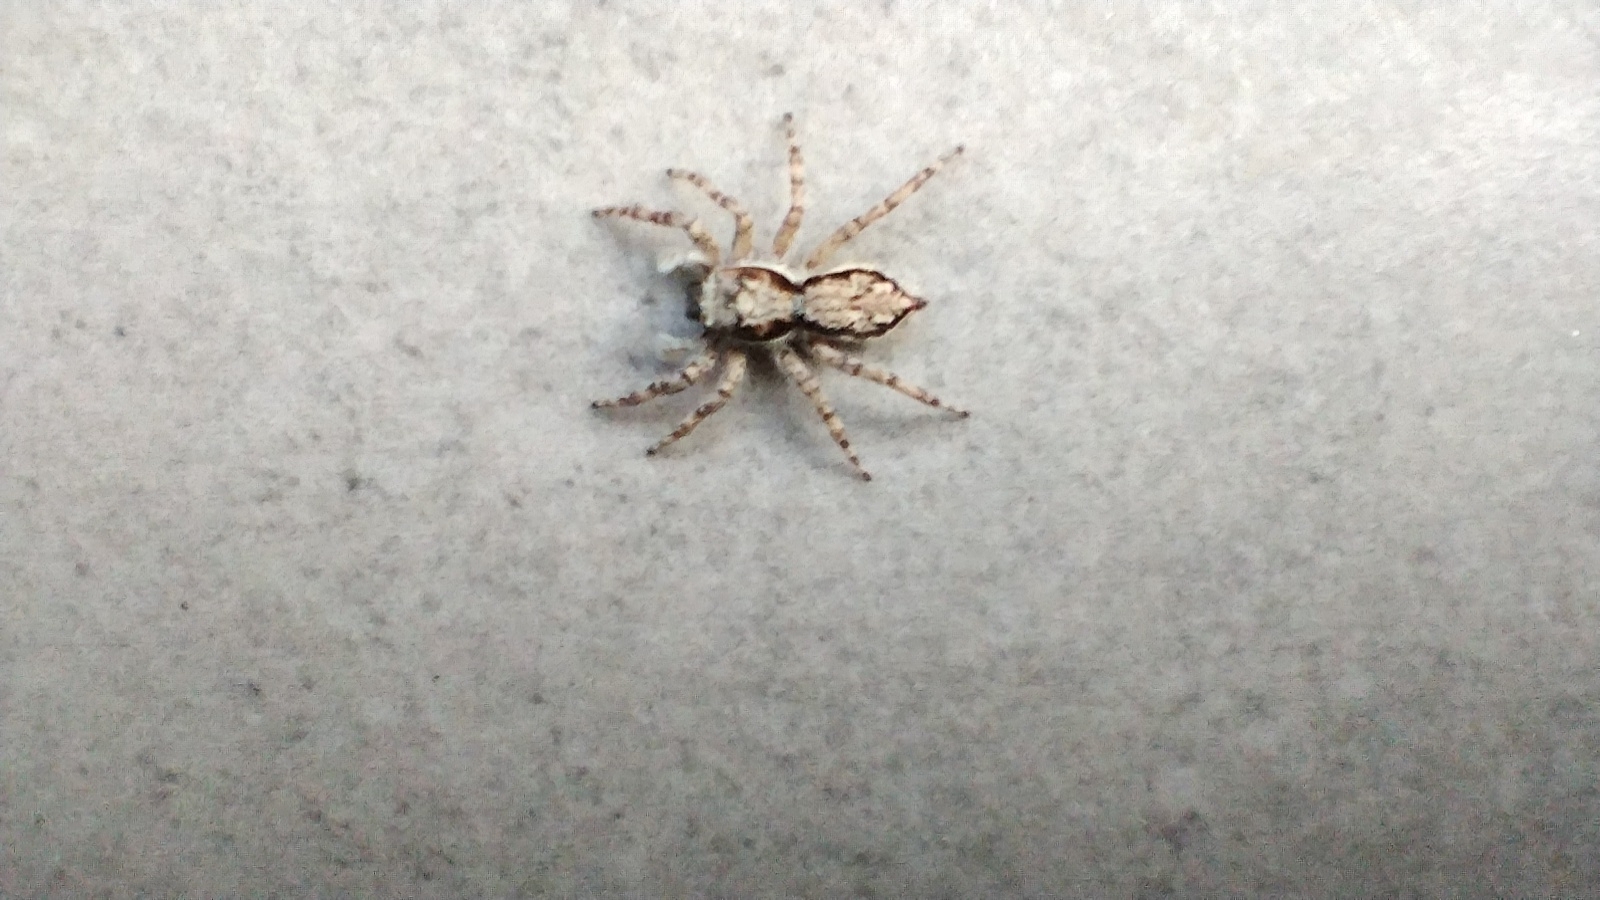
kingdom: Animalia
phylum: Arthropoda
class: Arachnida
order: Araneae
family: Salticidae
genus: Menemerus
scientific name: Menemerus bivittatus
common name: Gray wall jumper
